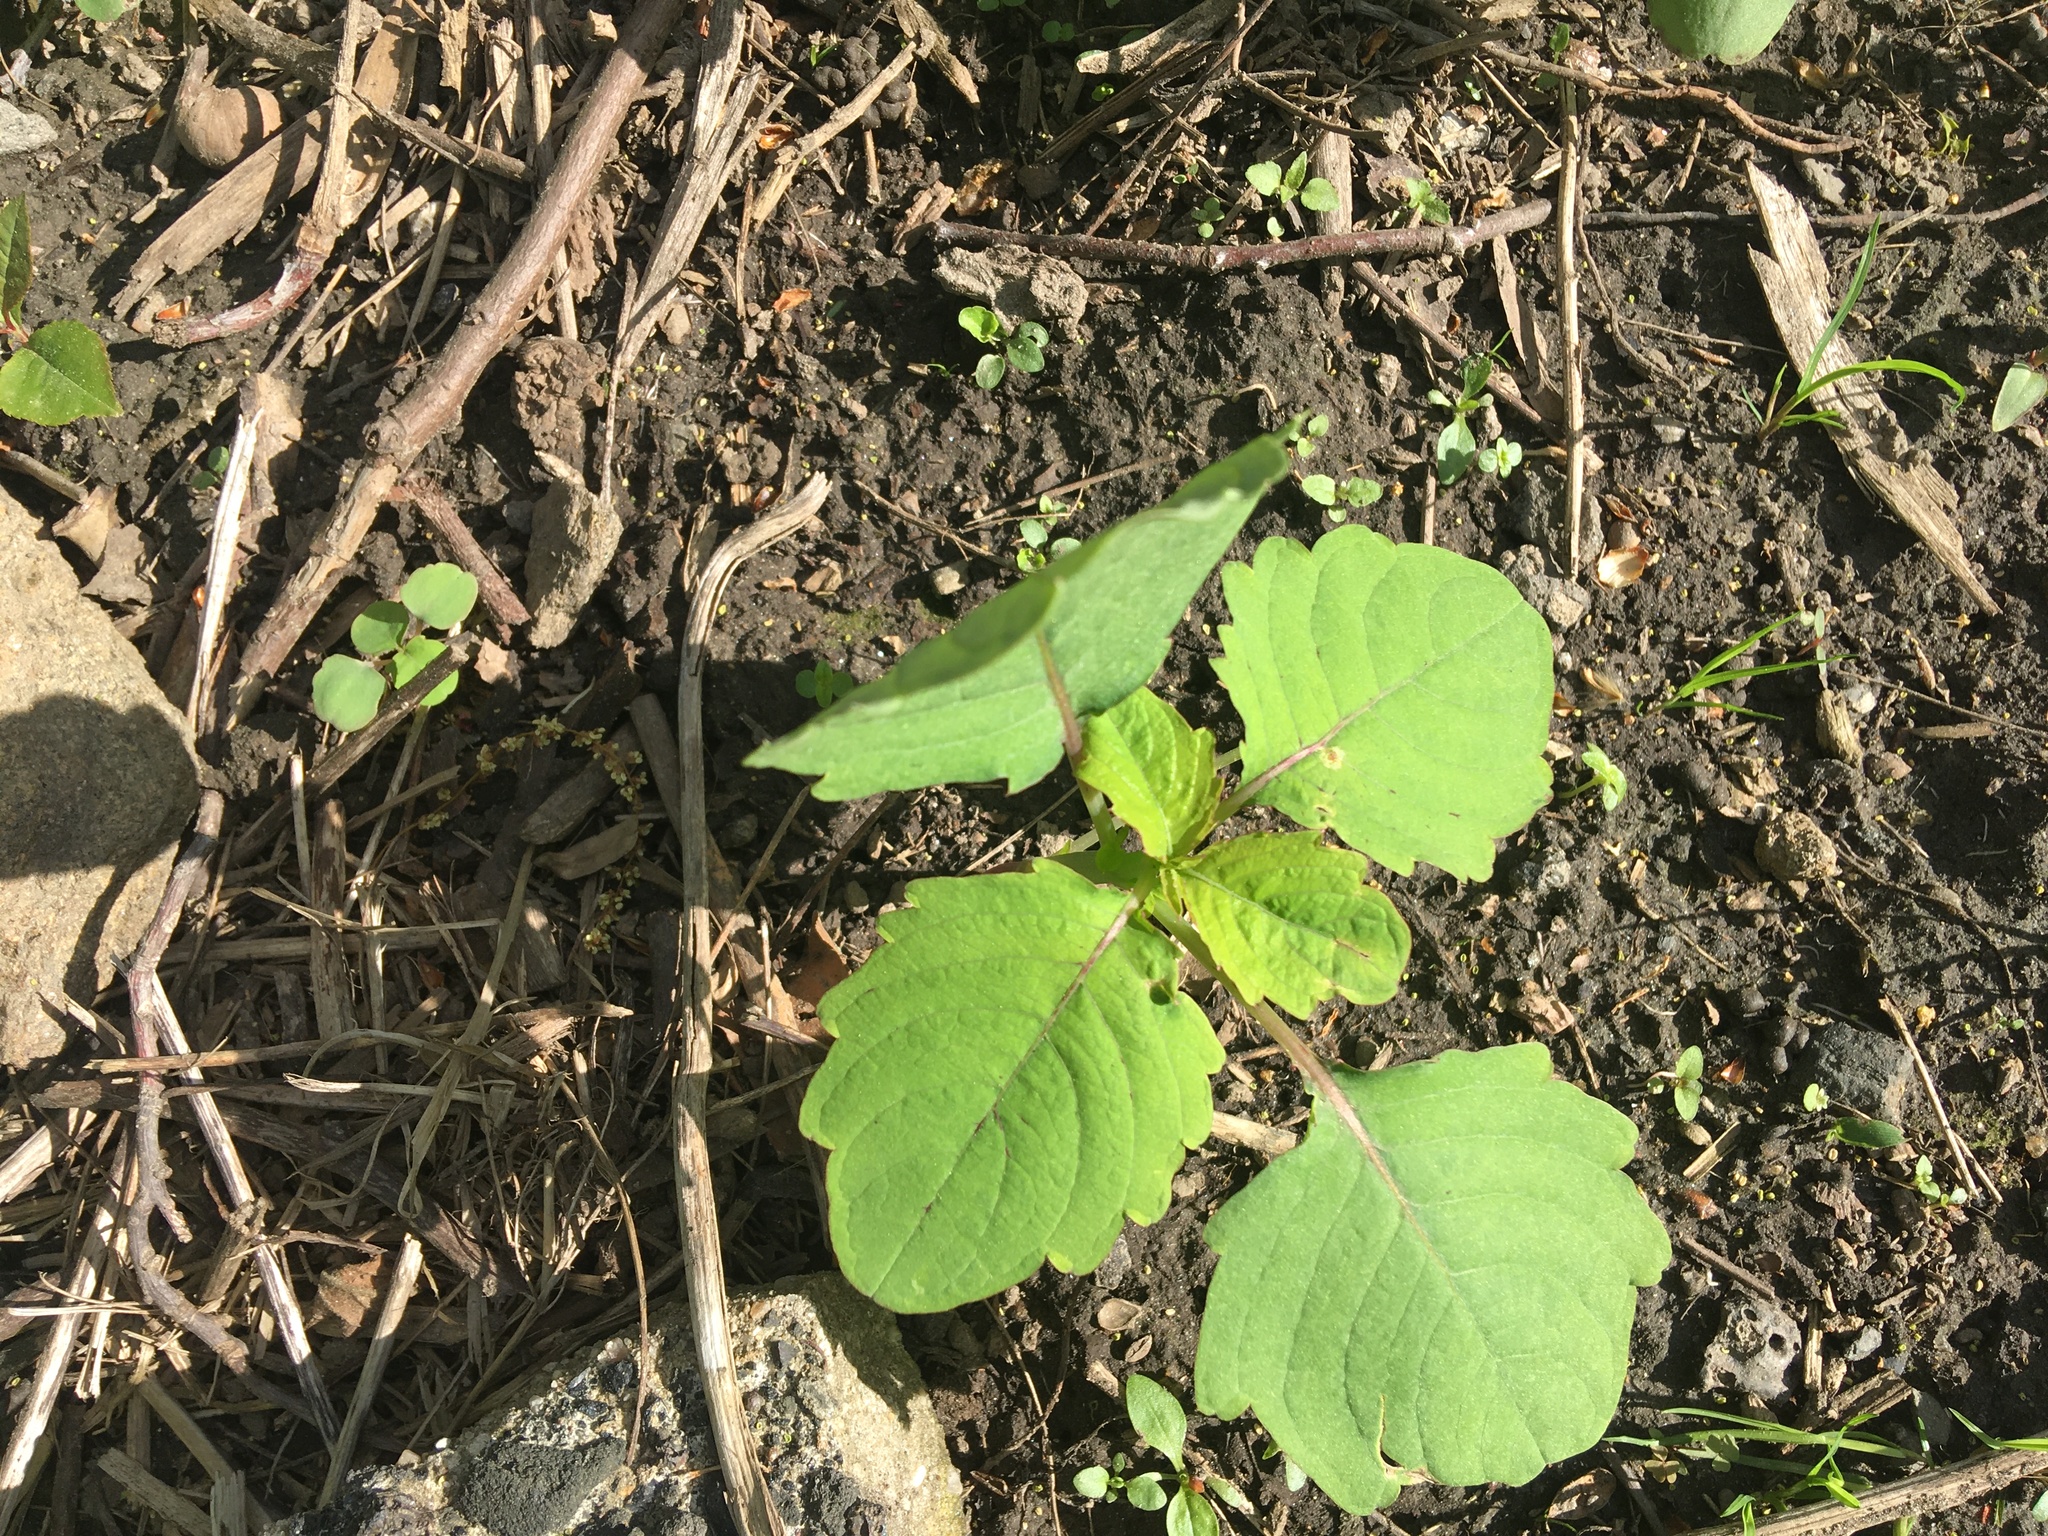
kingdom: Plantae
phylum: Tracheophyta
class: Magnoliopsida
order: Ericales
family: Balsaminaceae
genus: Impatiens
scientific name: Impatiens capensis
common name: Orange balsam
